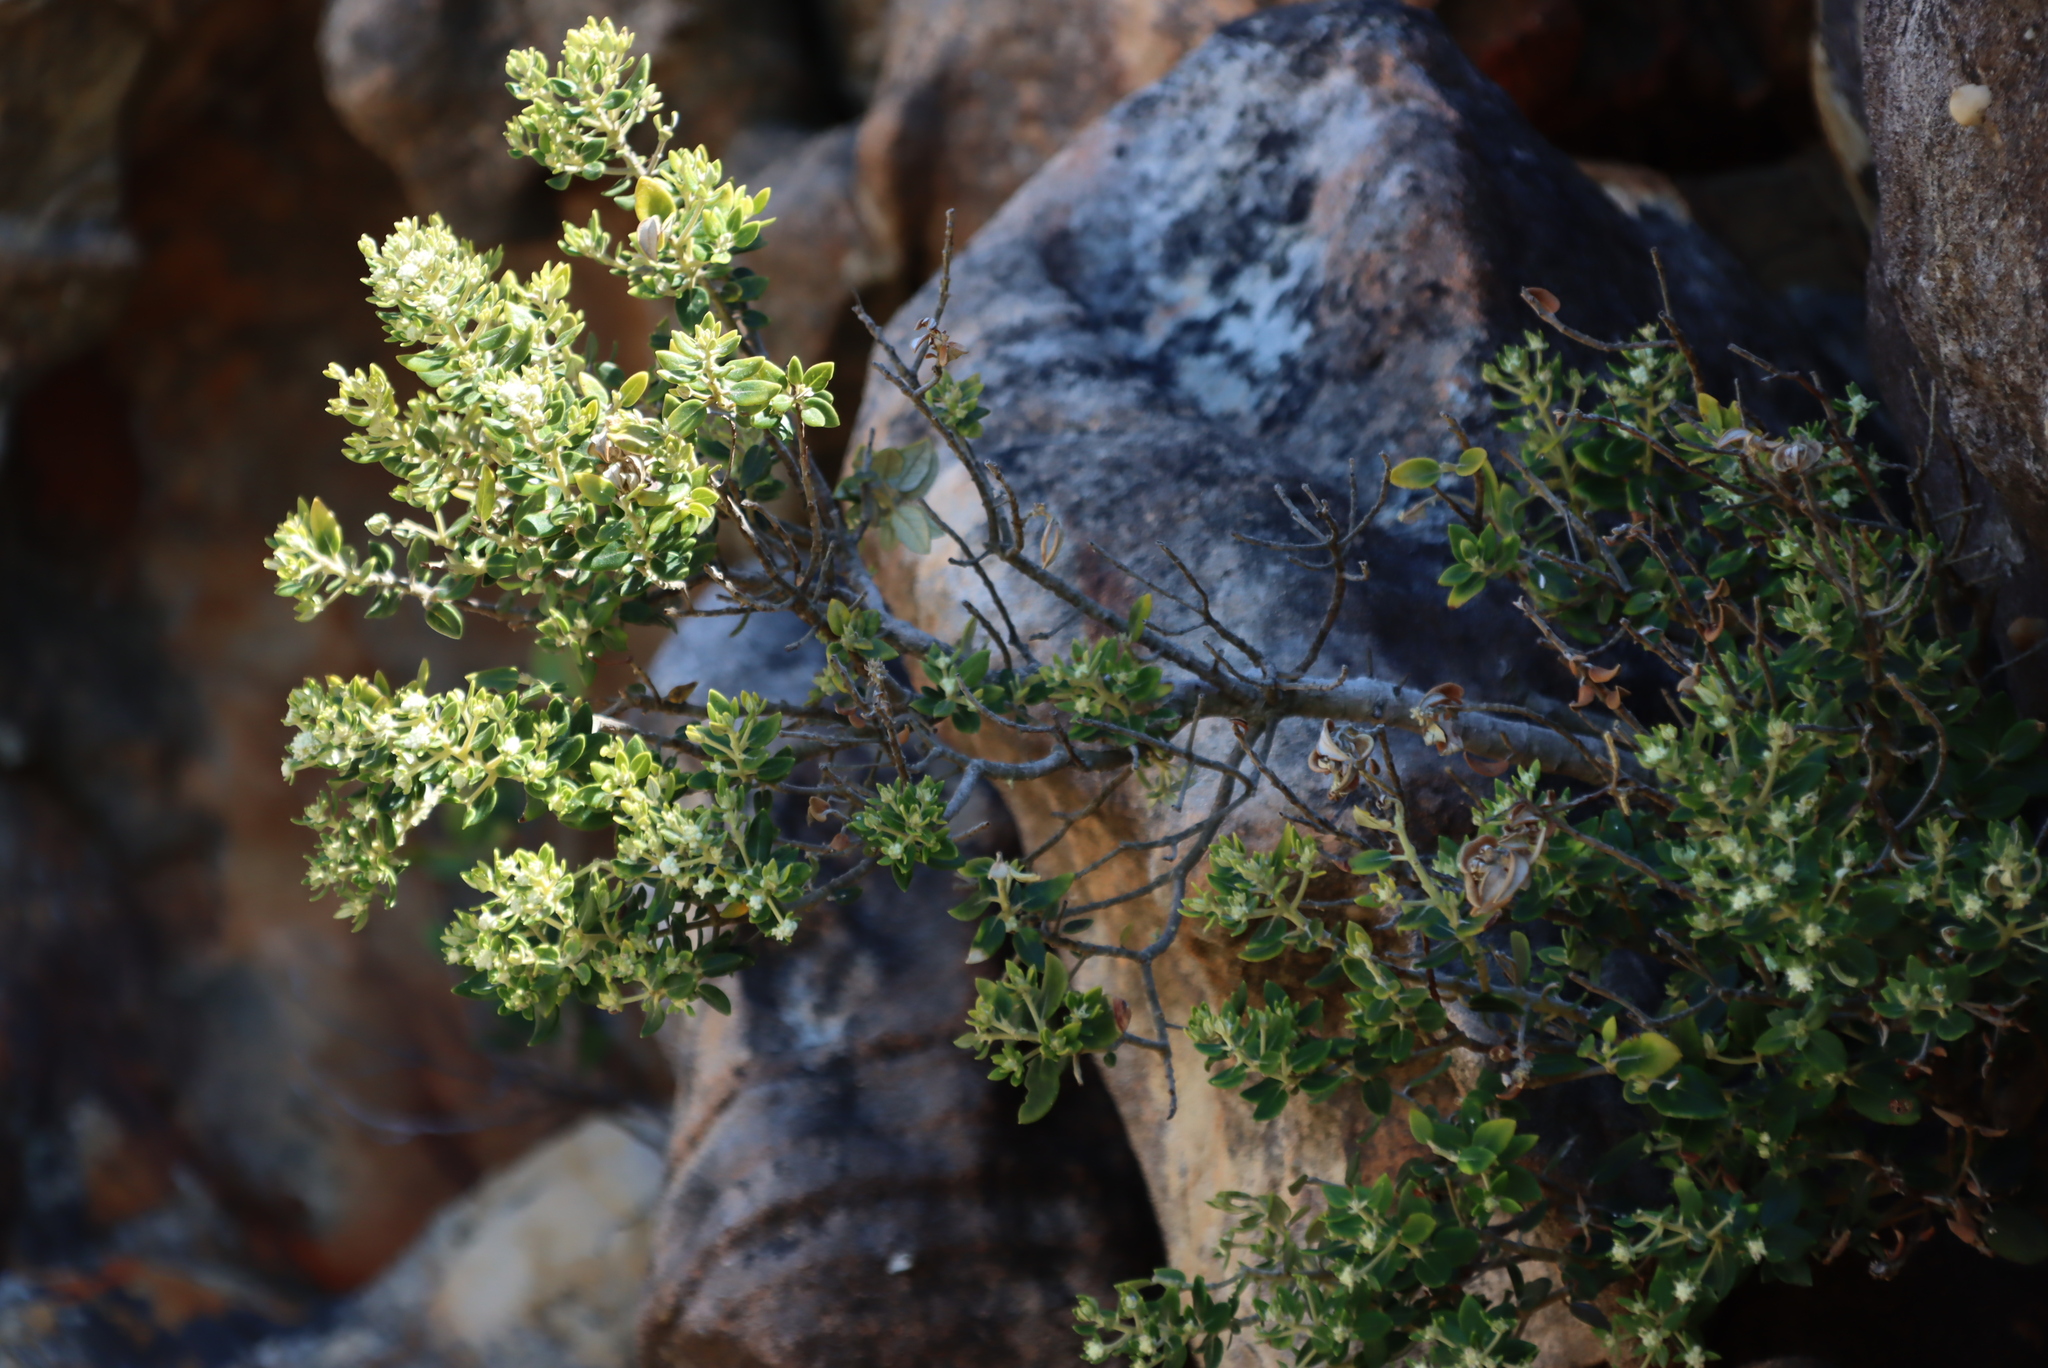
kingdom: Plantae
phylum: Tracheophyta
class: Magnoliopsida
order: Rosales
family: Rhamnaceae
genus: Phylica
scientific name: Phylica buxifolia
